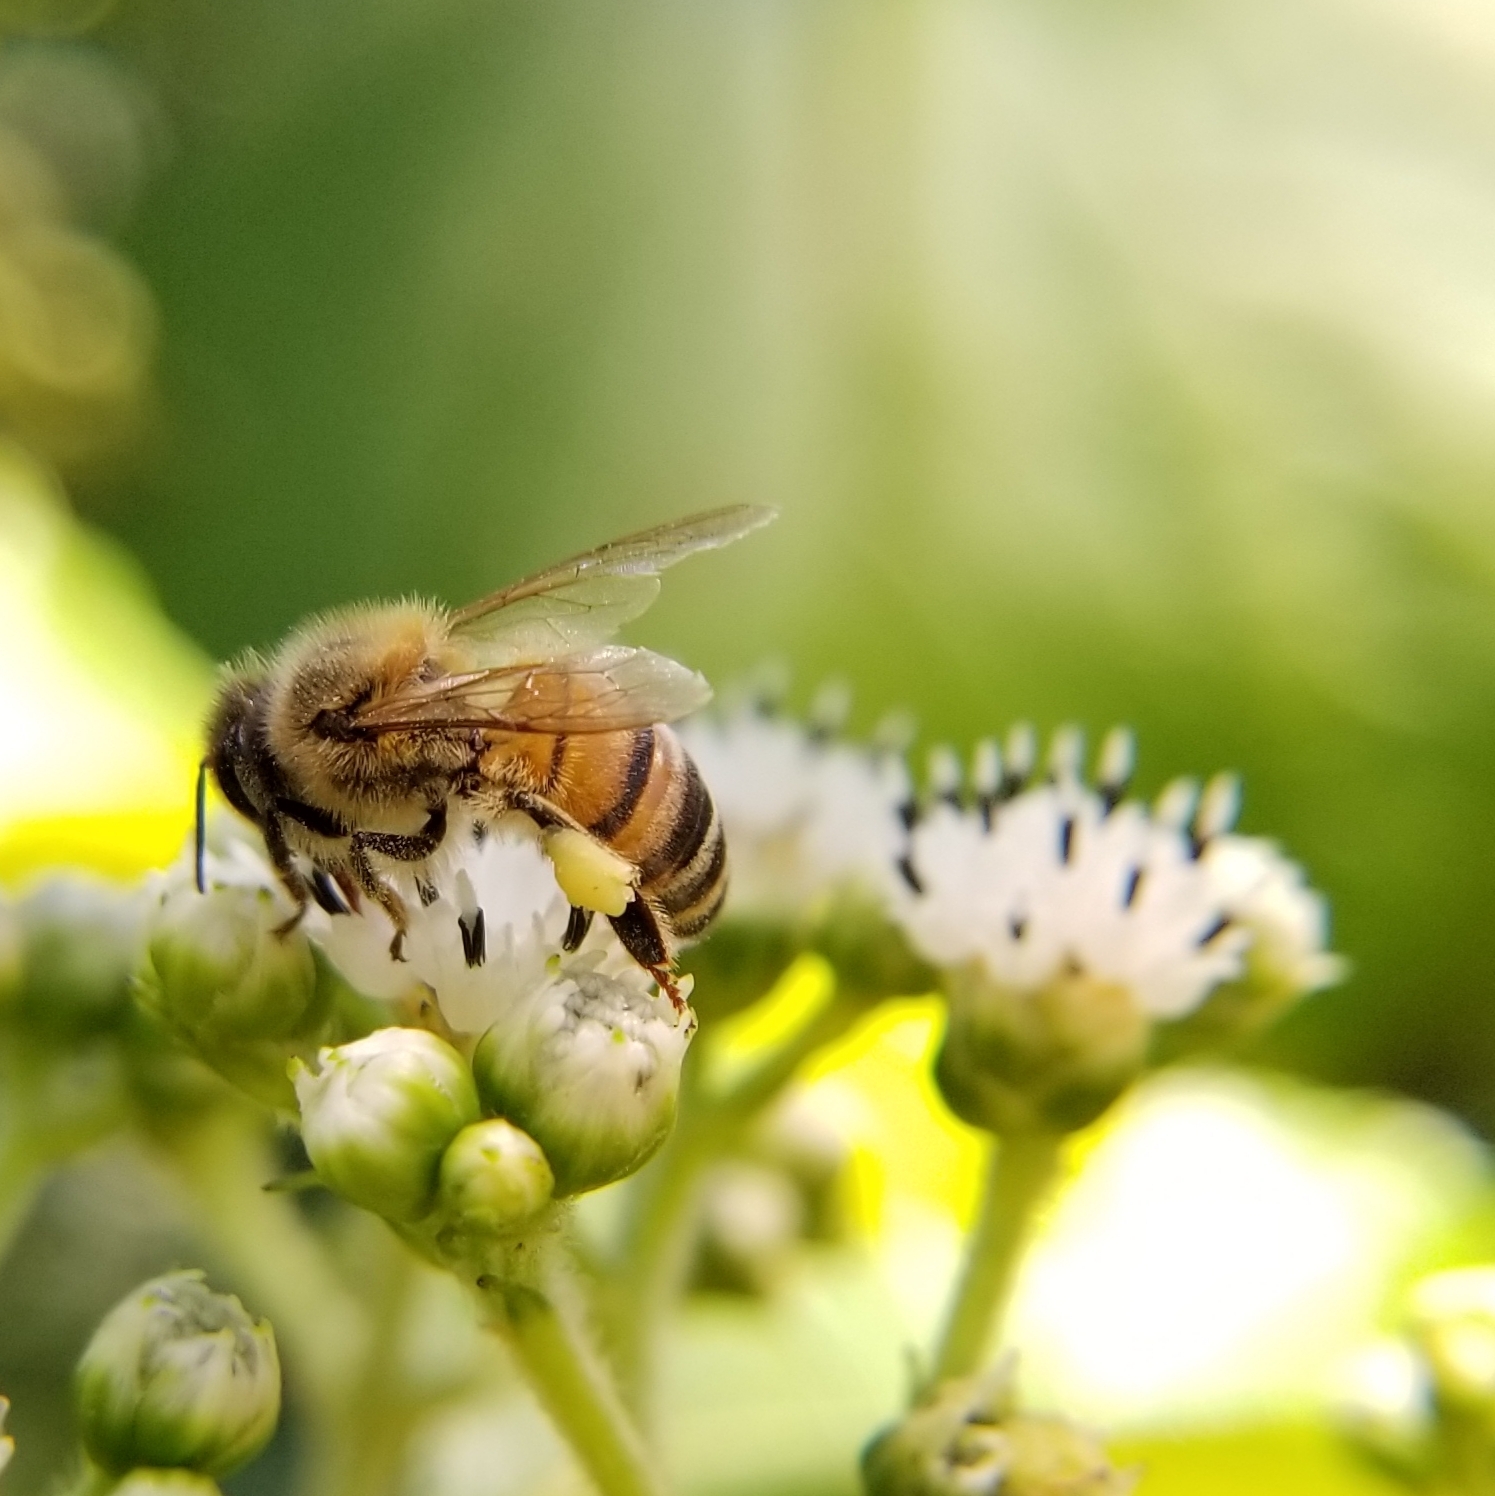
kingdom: Animalia
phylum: Arthropoda
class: Insecta
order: Hymenoptera
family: Apidae
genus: Apis
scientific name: Apis mellifera
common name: Honey bee
